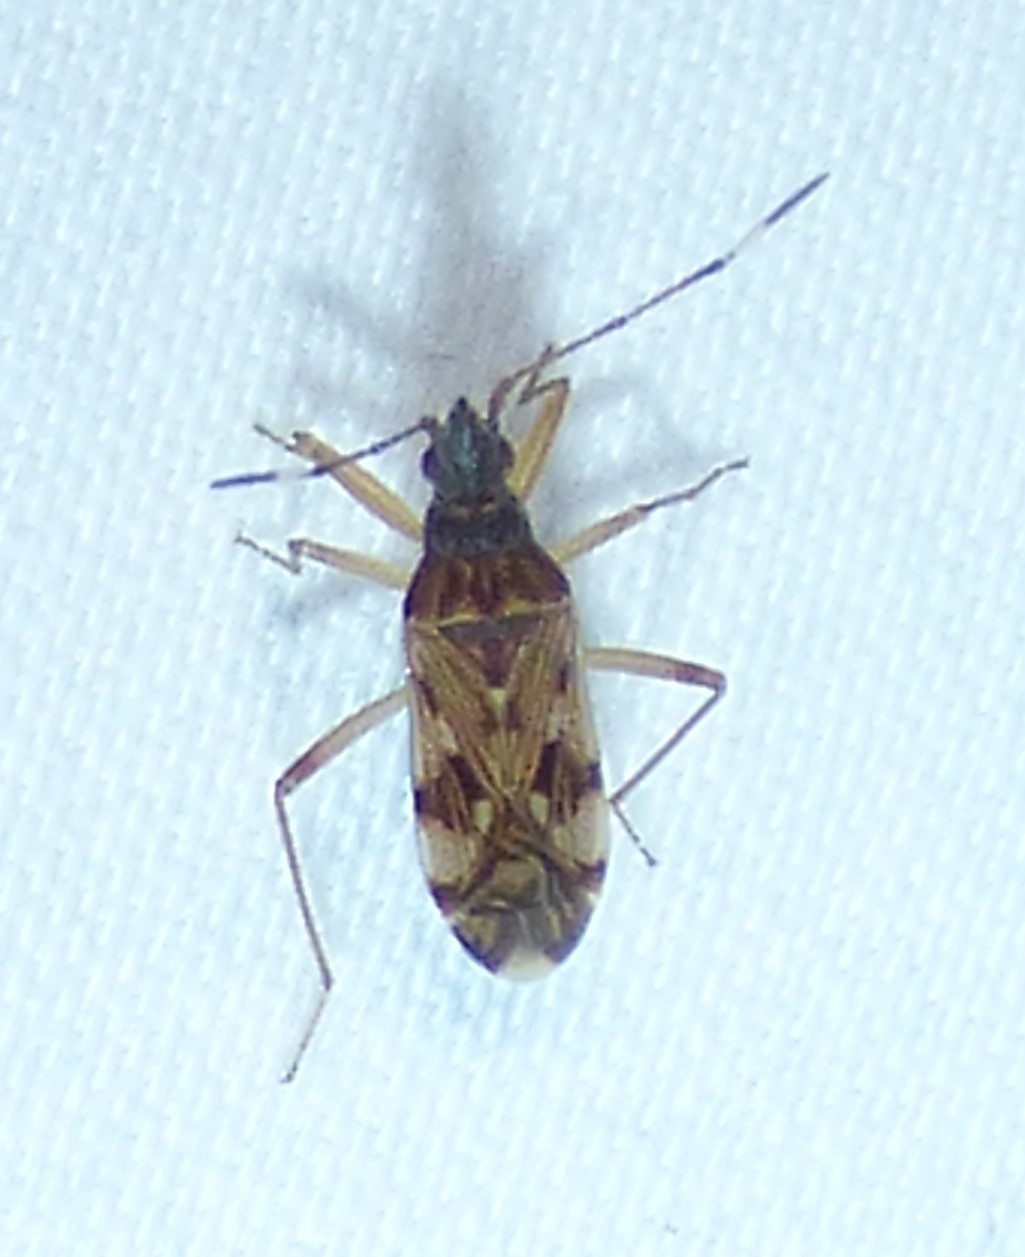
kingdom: Animalia
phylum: Arthropoda
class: Insecta
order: Hemiptera
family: Rhyparochromidae
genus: Ozophora
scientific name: Ozophora picturata
